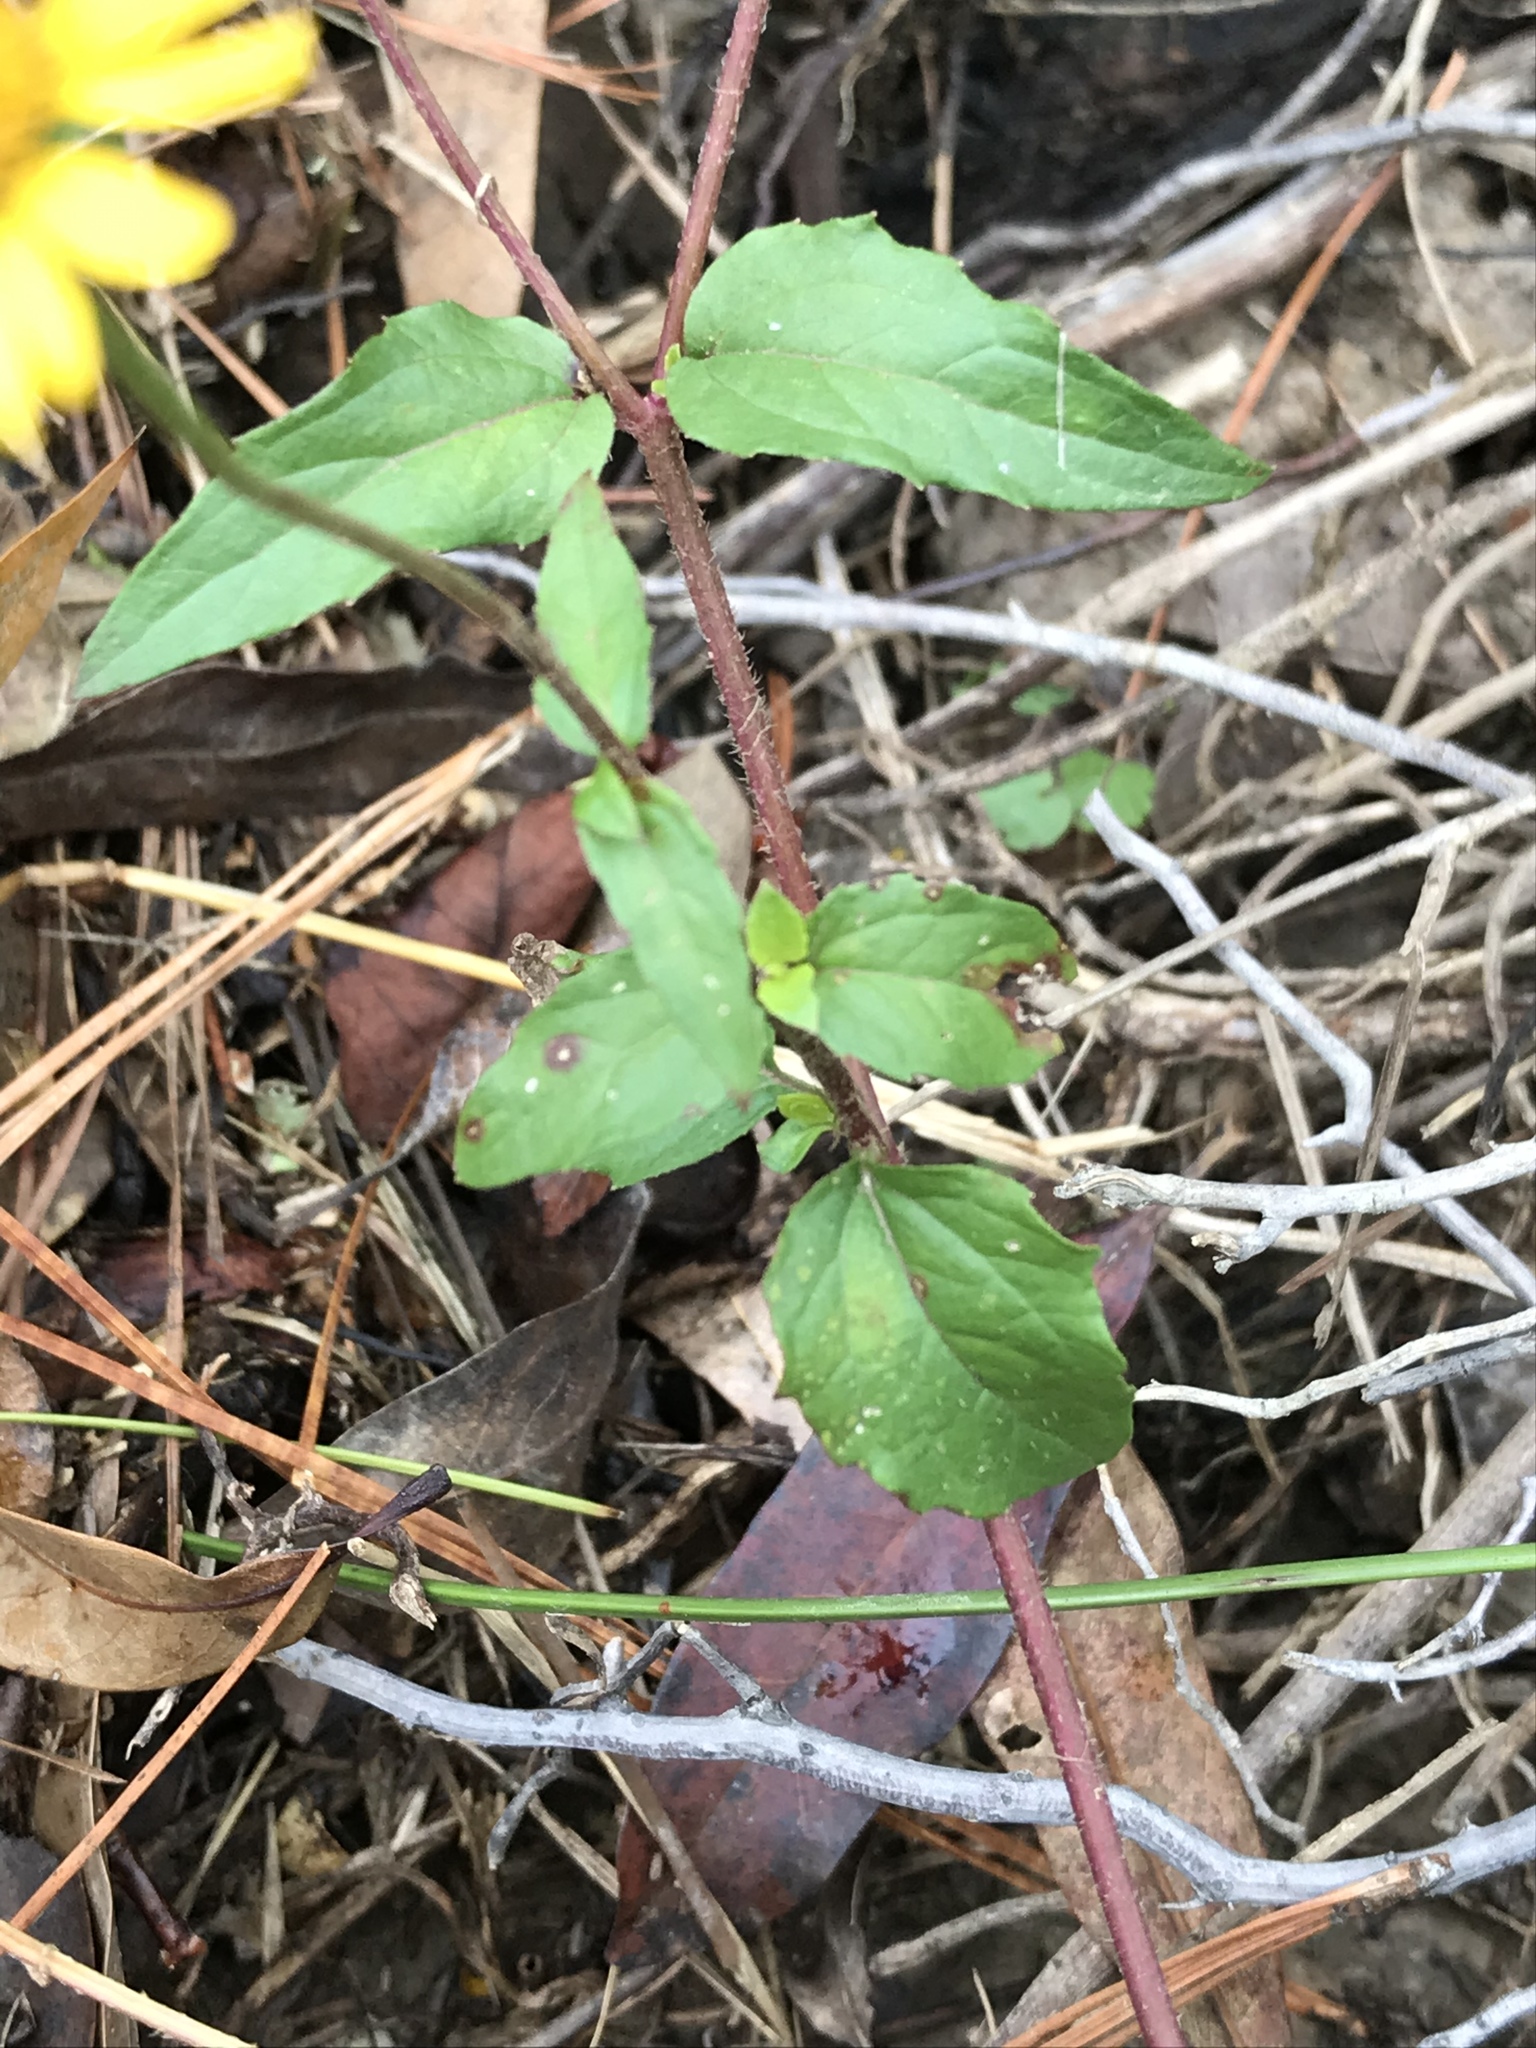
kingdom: Plantae
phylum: Tracheophyta
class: Magnoliopsida
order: Asterales
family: Asteraceae
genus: Heliopsis
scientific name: Heliopsis buphthalmoides
